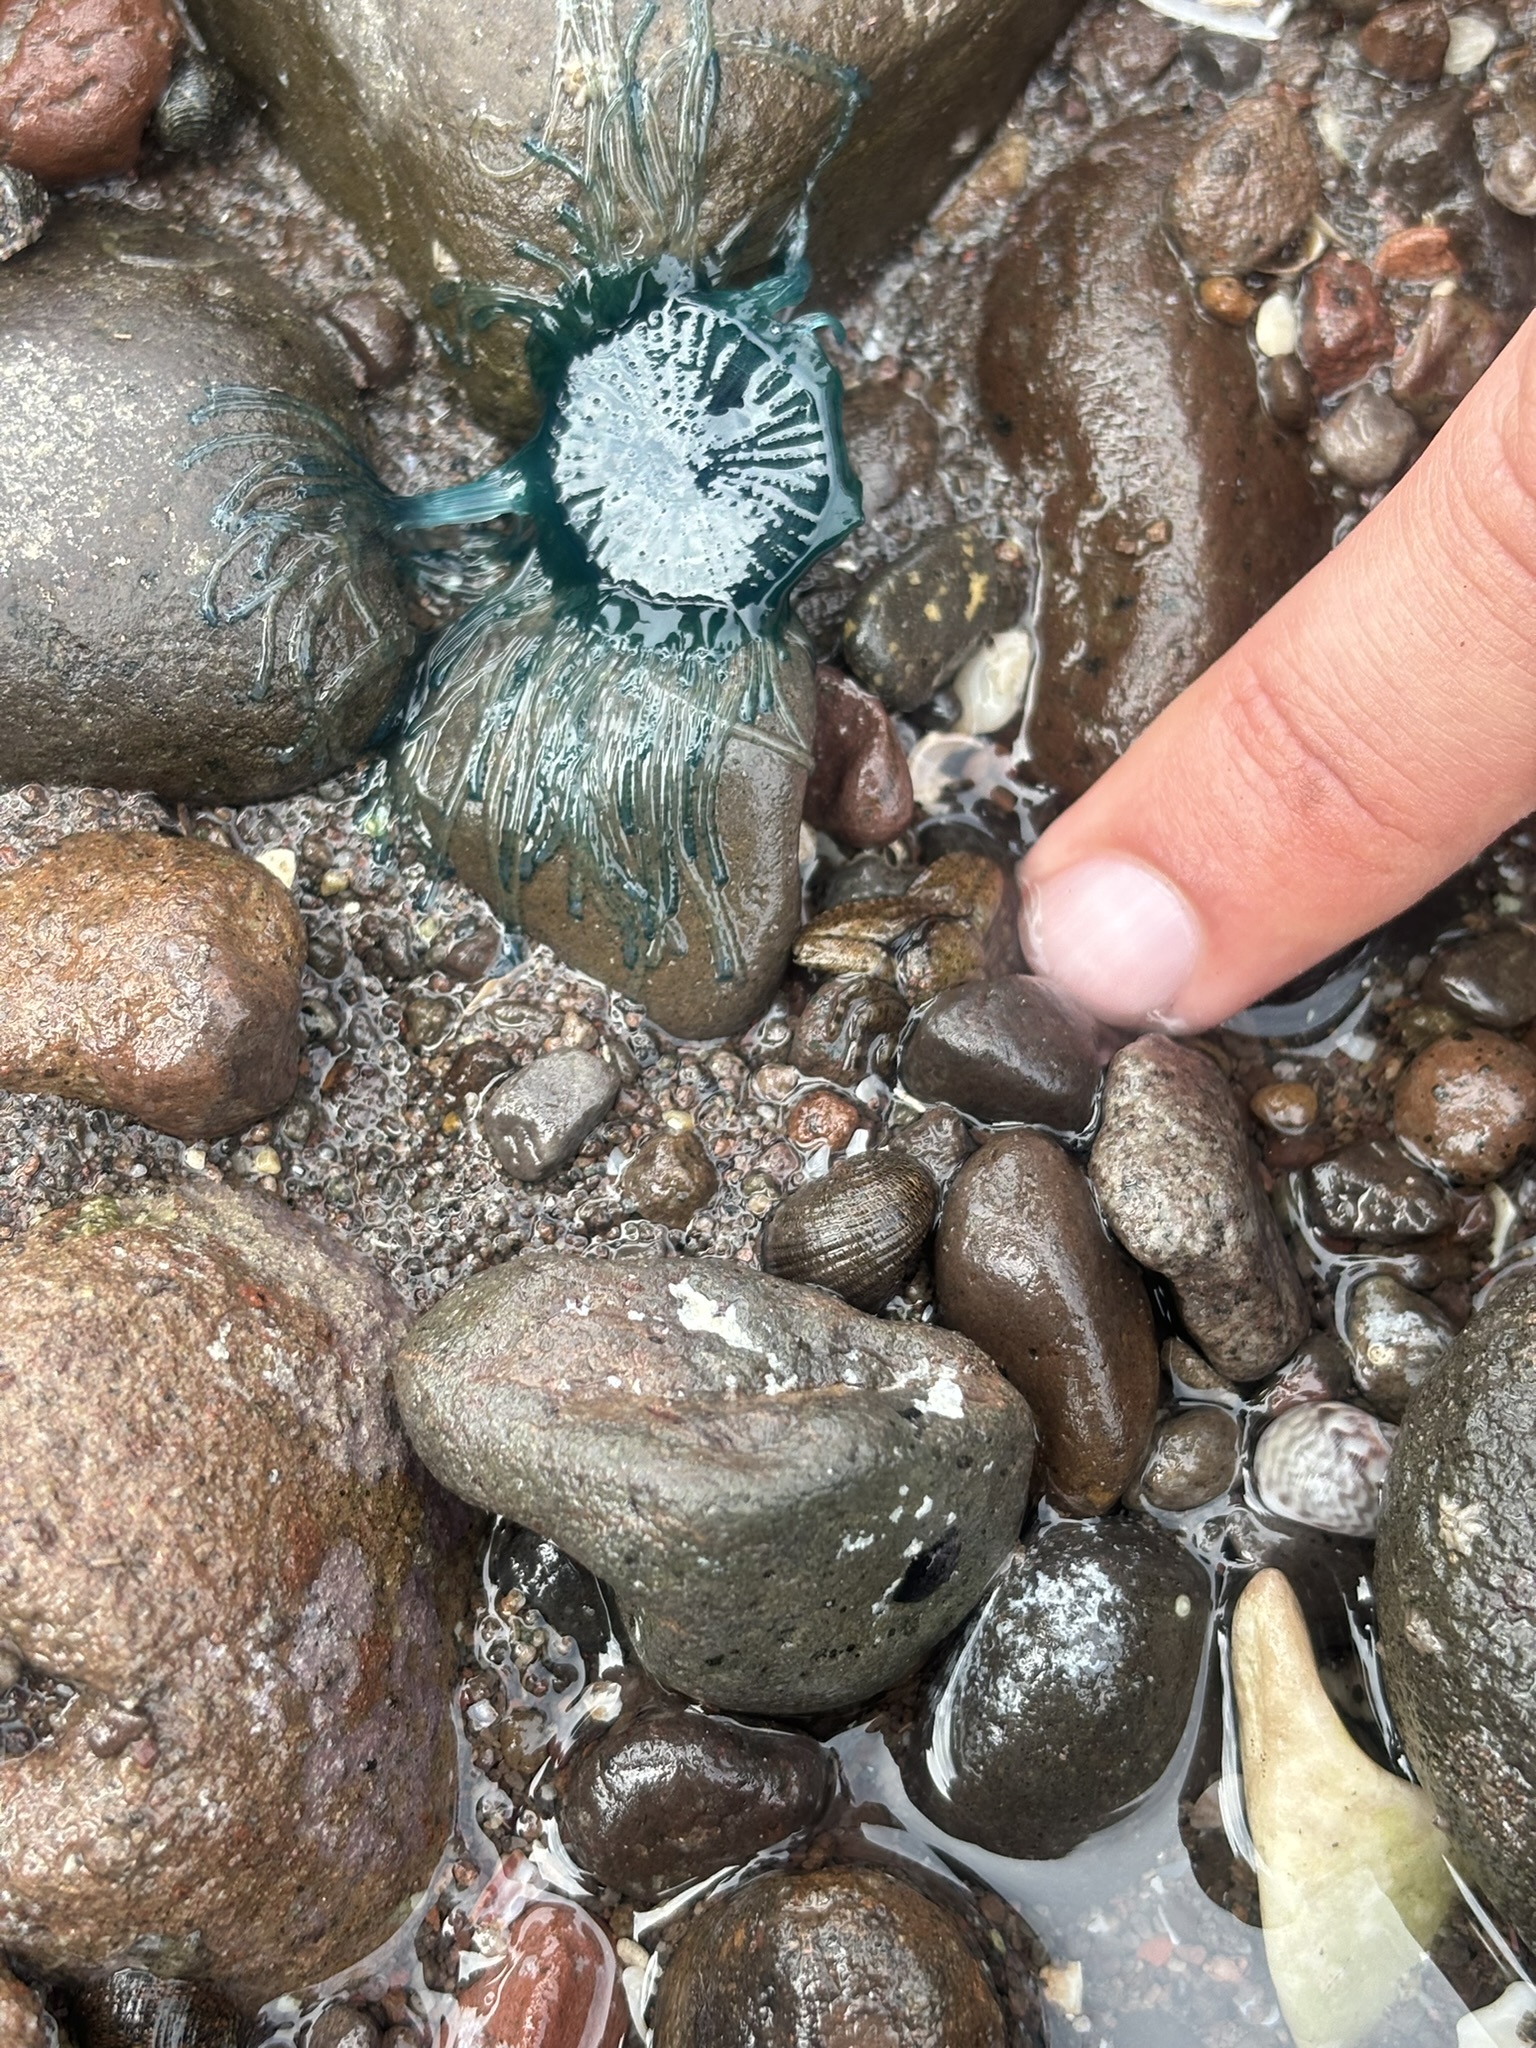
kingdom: Animalia
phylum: Cnidaria
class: Hydrozoa
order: Anthoathecata
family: Porpitidae
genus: Porpita
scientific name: Porpita porpita
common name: Blue button
